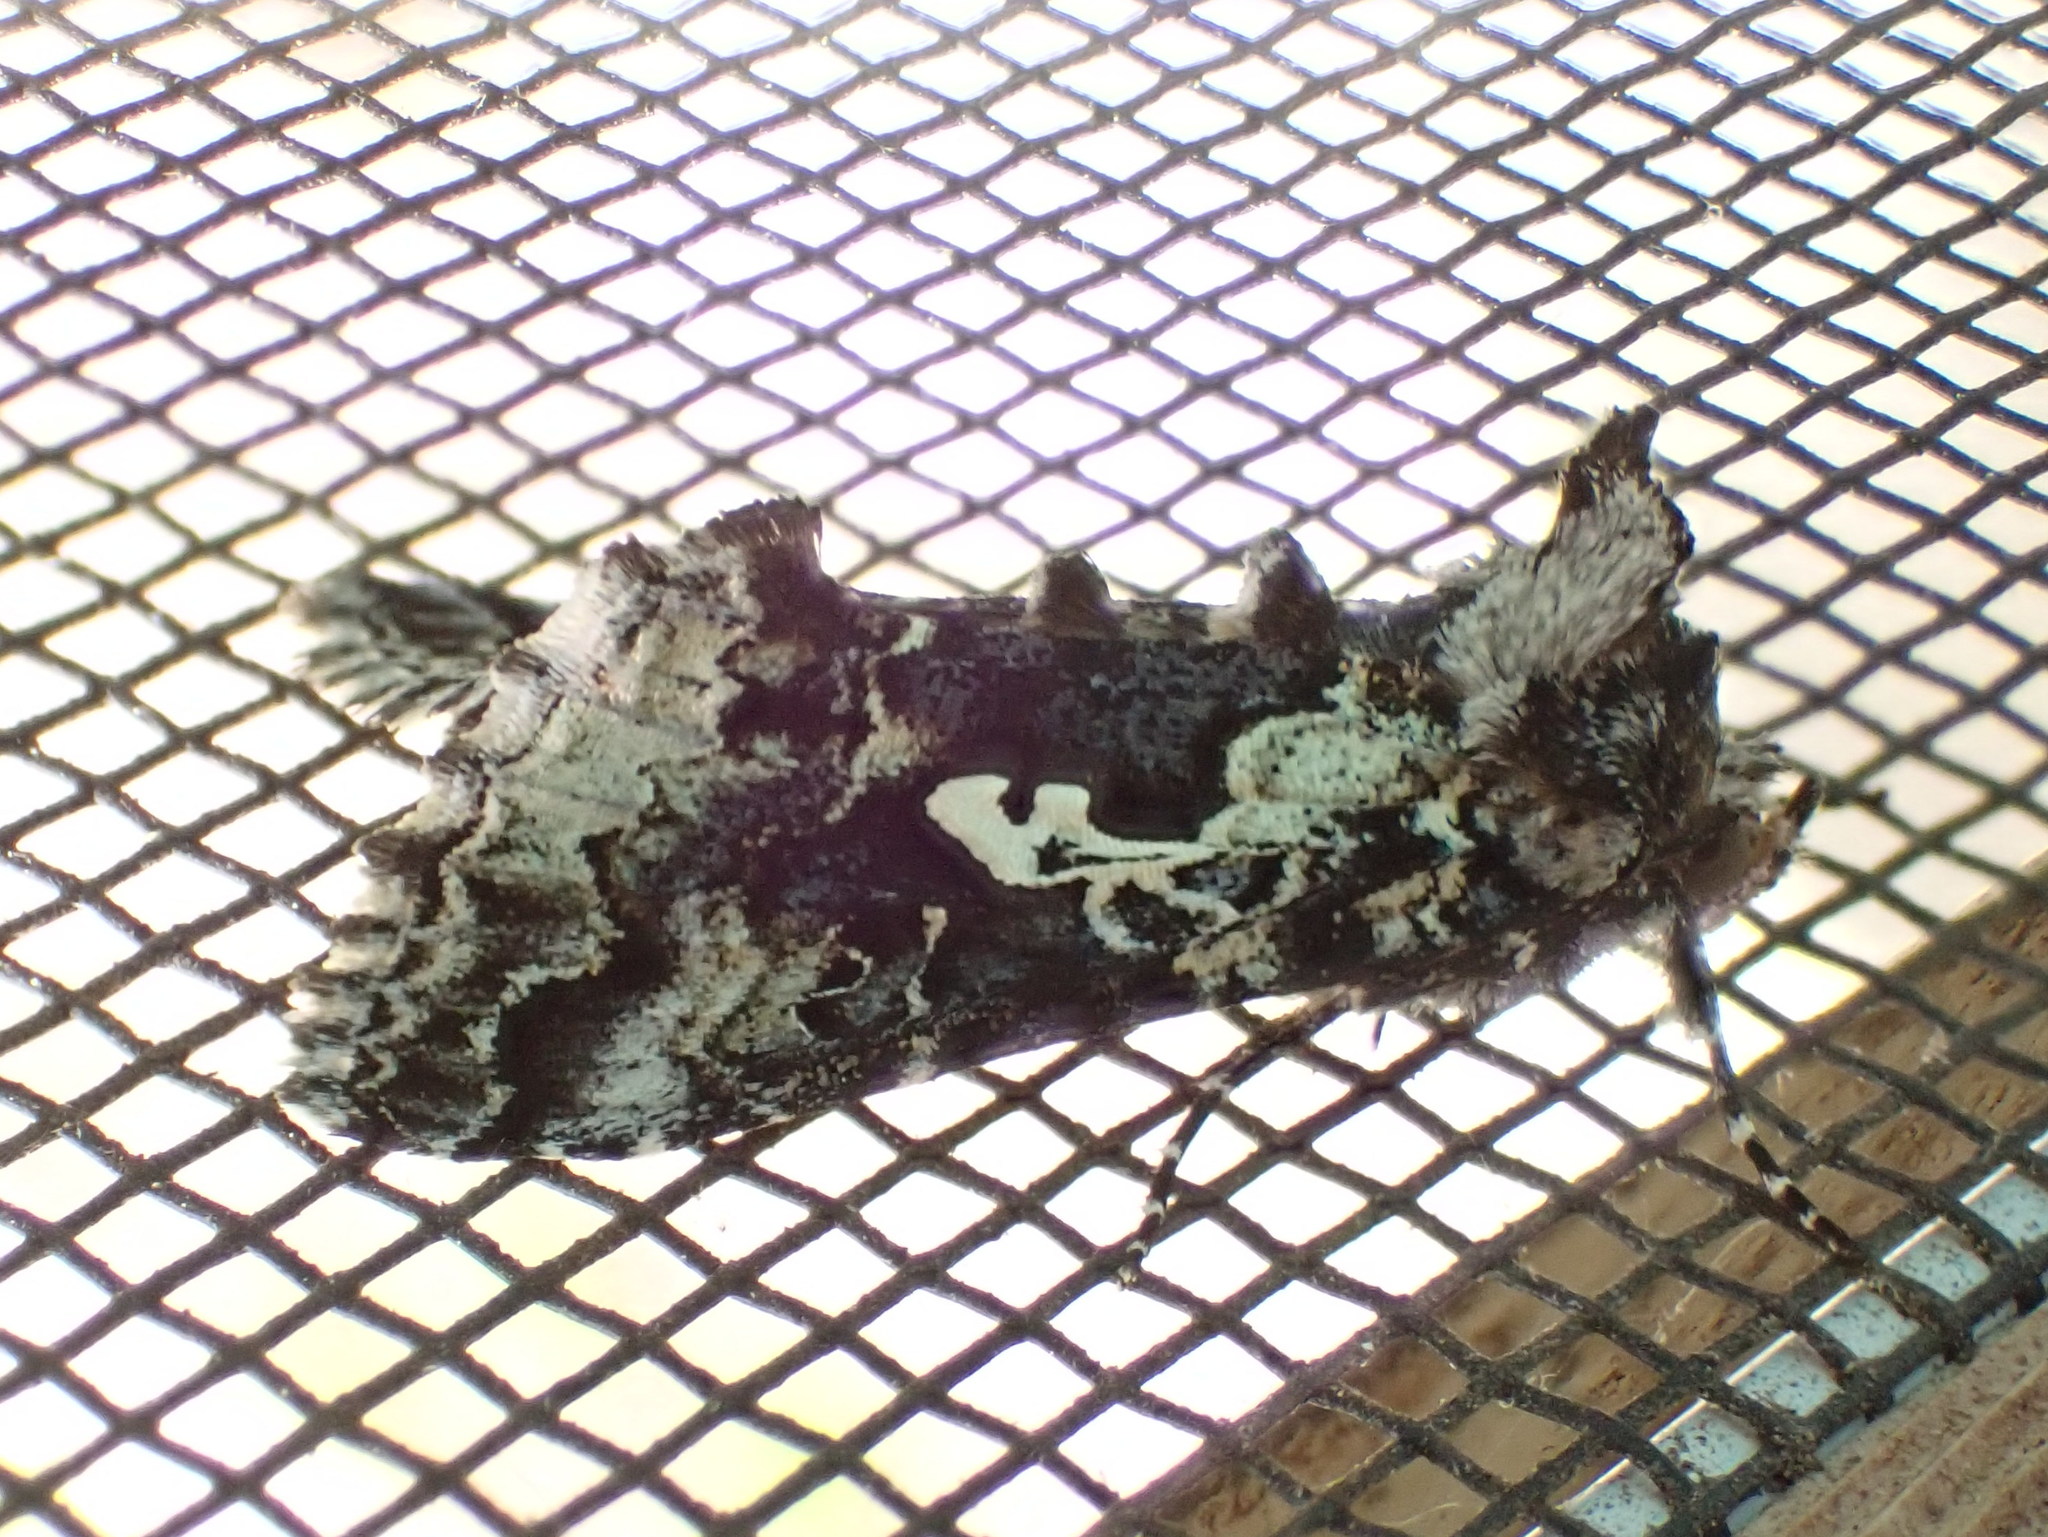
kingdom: Animalia
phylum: Arthropoda
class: Insecta
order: Lepidoptera
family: Noctuidae
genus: Syngrapha
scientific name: Syngrapha rectangula
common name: Angulated cutworm
